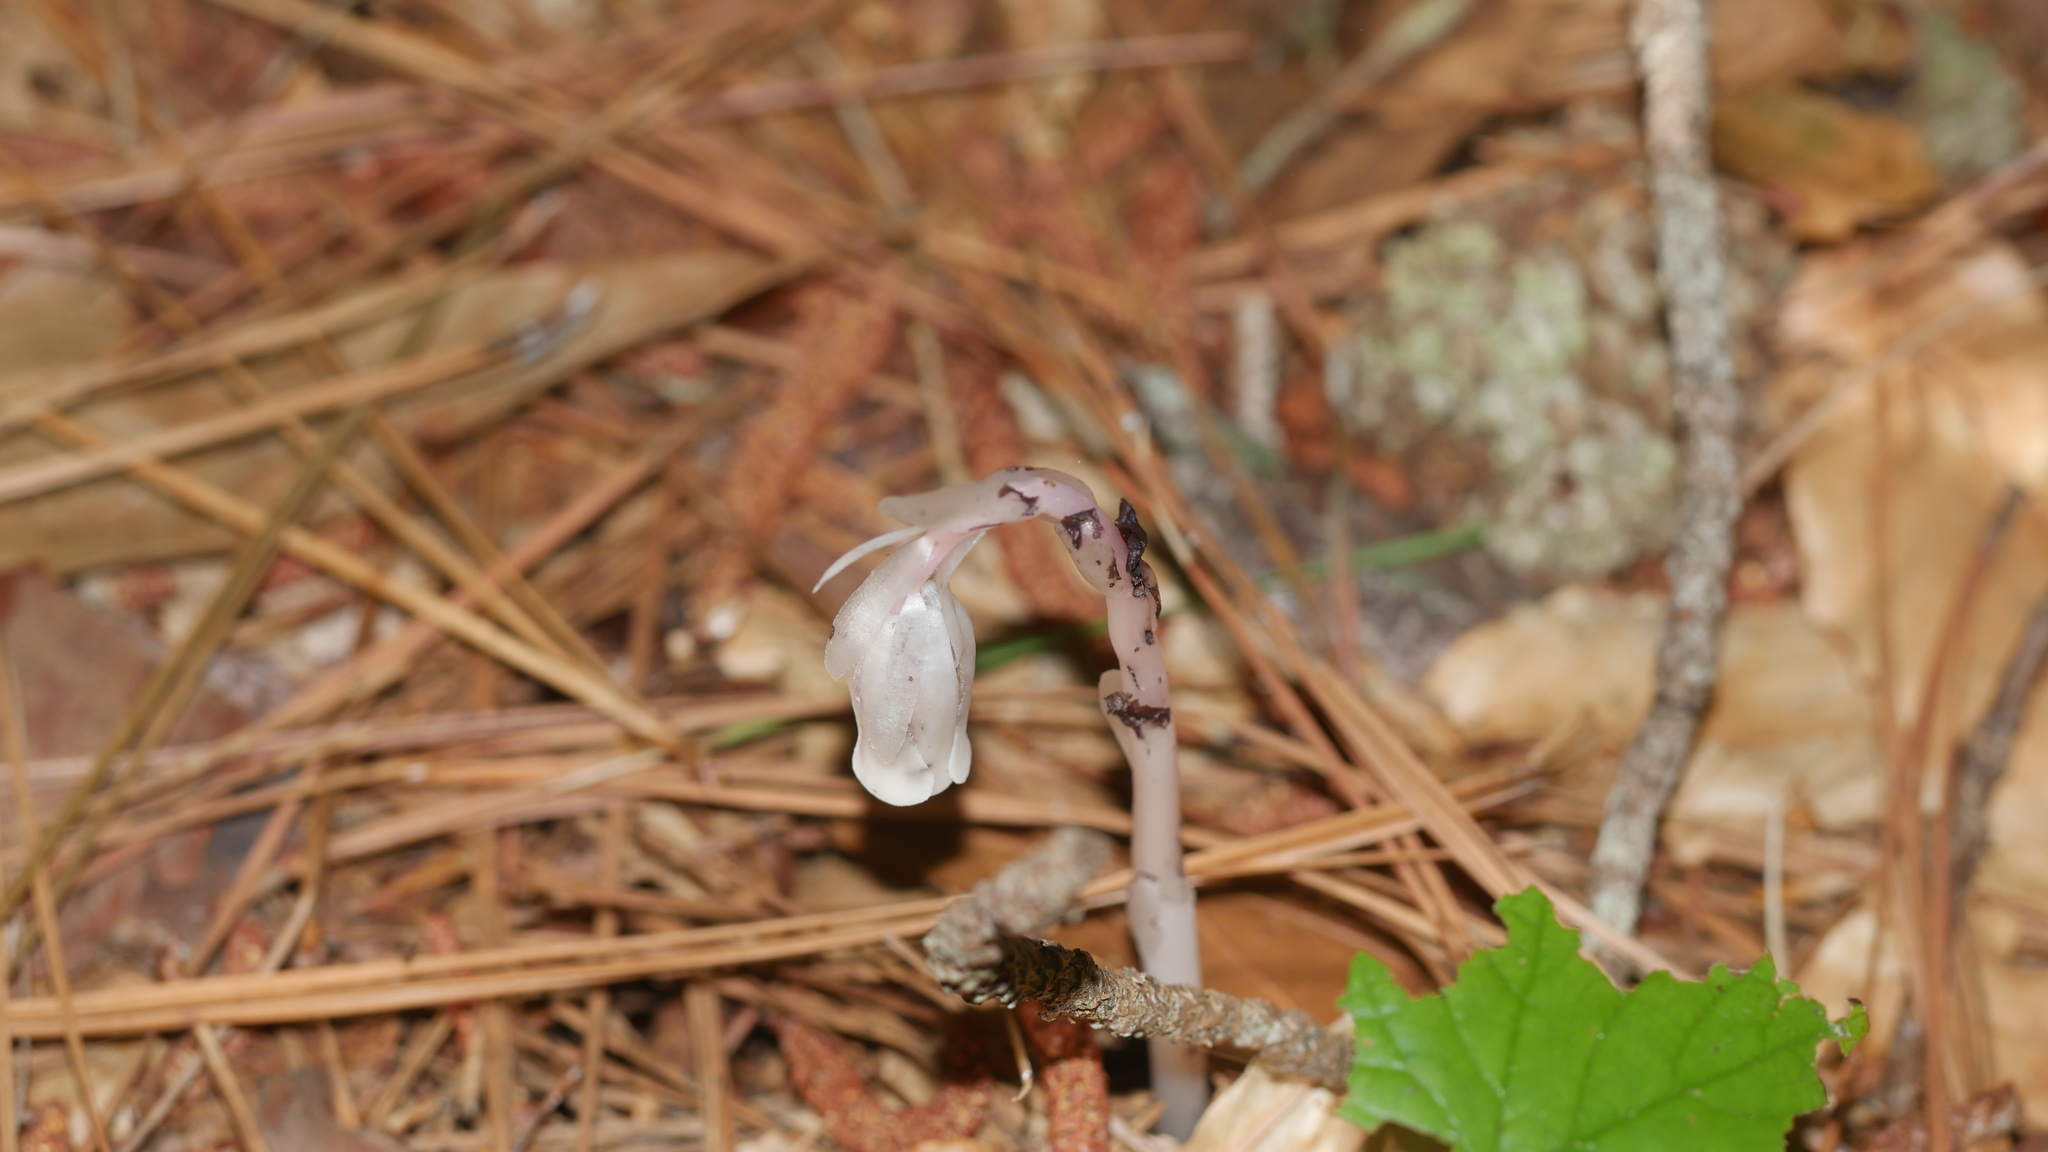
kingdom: Plantae
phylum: Tracheophyta
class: Magnoliopsida
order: Ericales
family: Ericaceae
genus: Monotropa
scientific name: Monotropa uniflora
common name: Convulsion root
